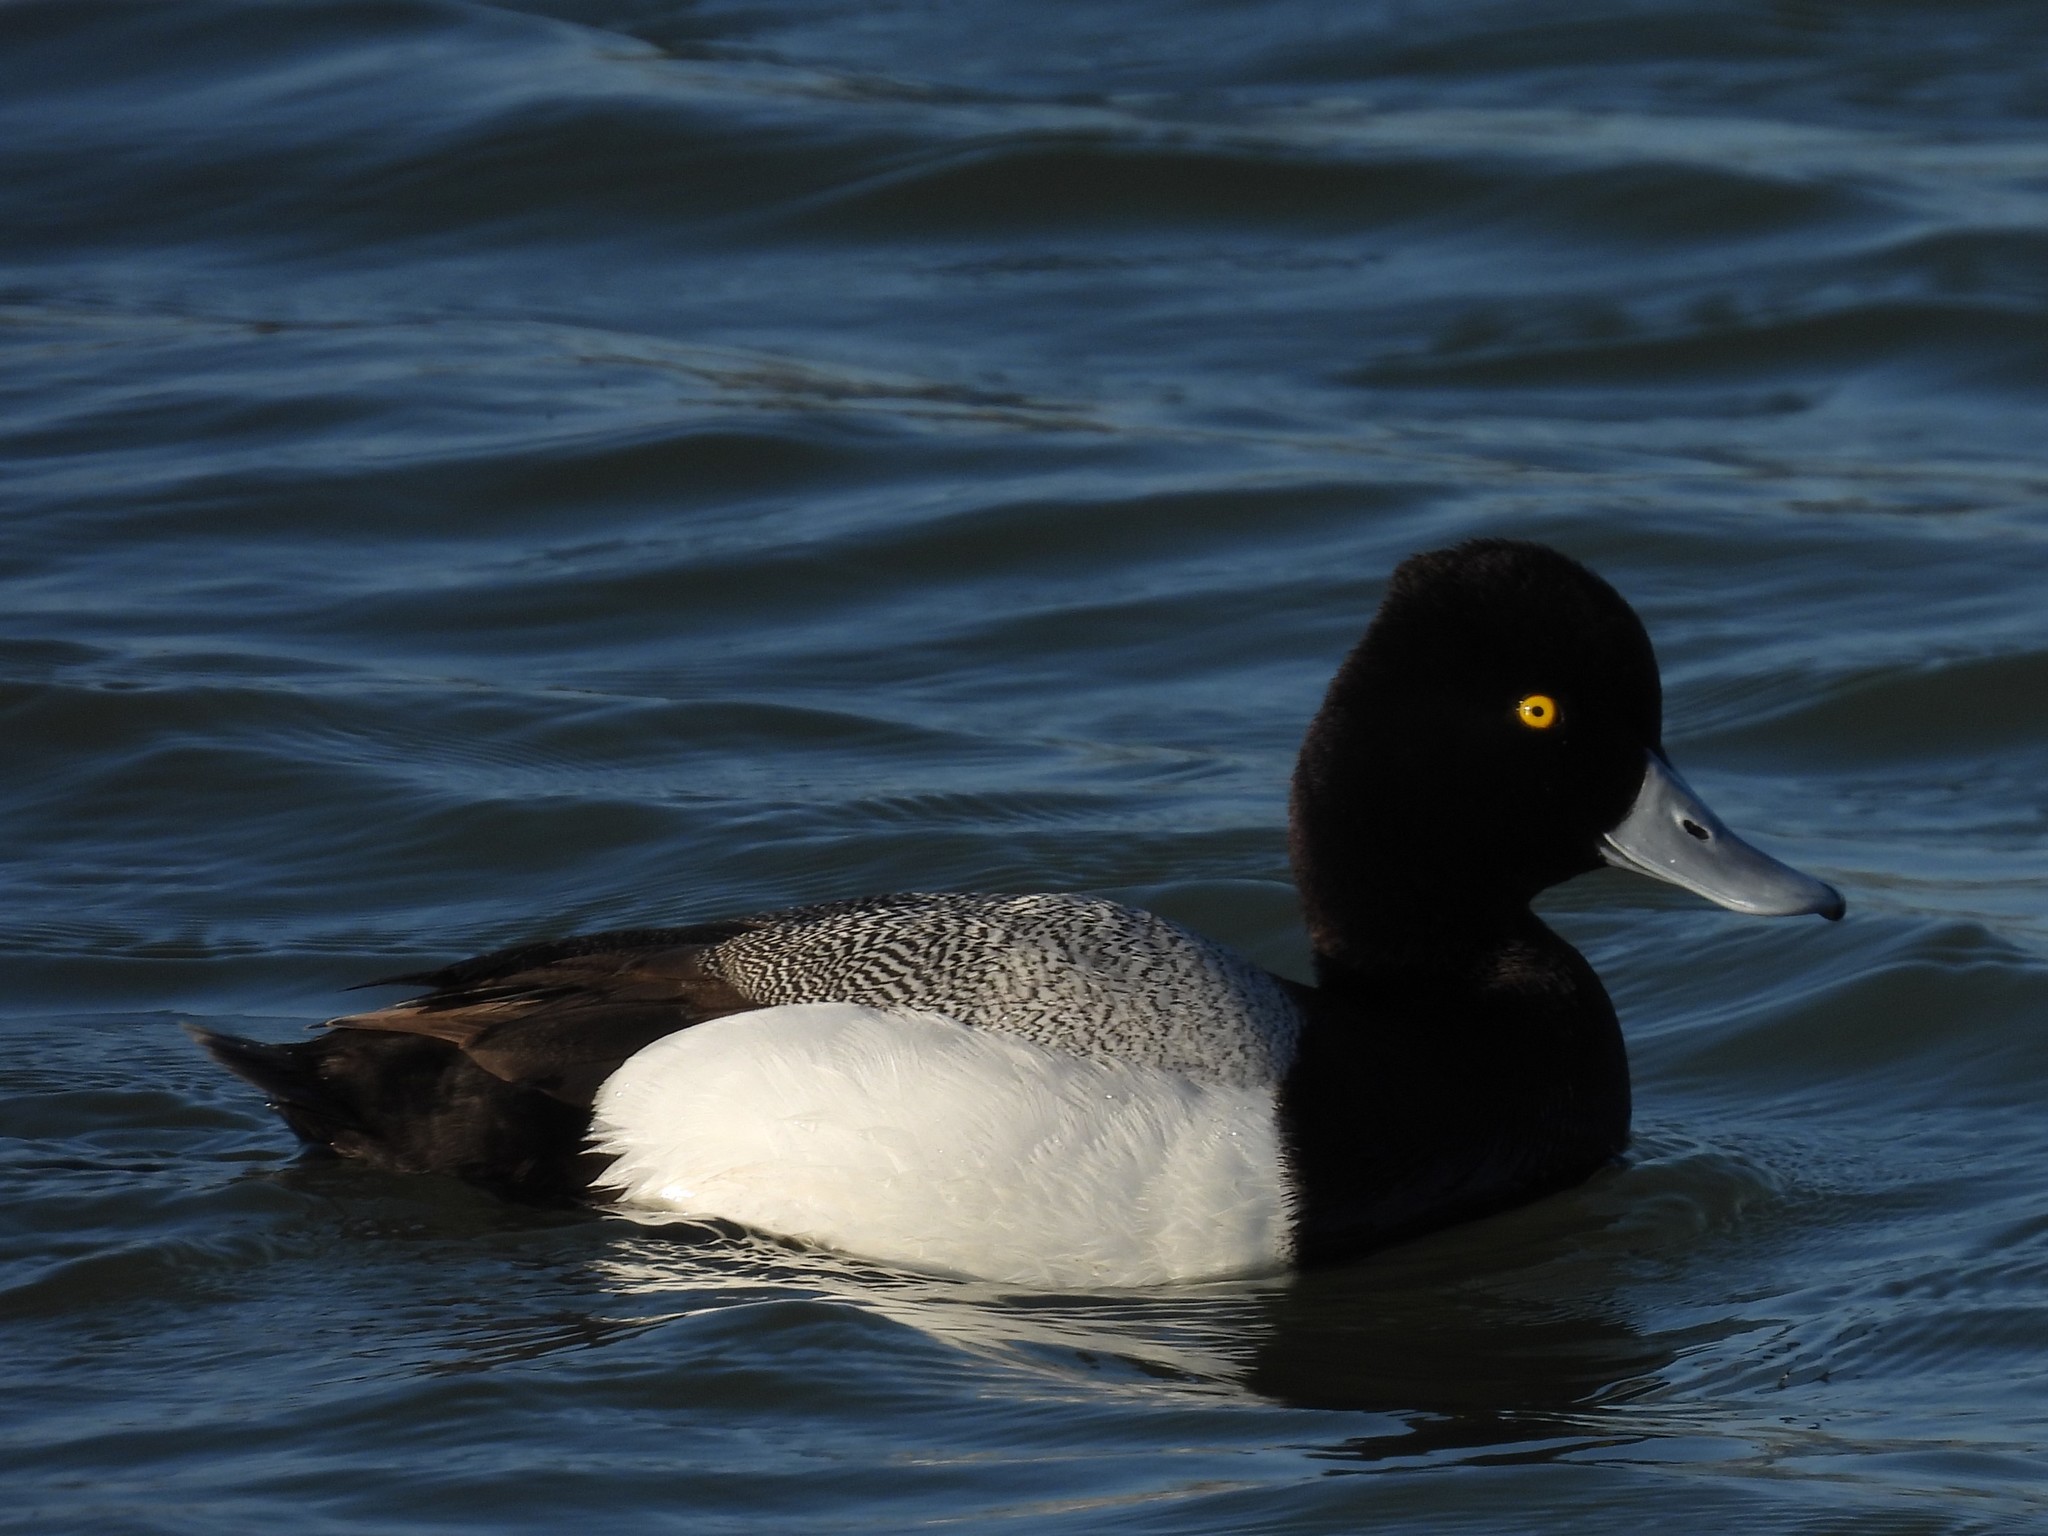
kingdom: Animalia
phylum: Chordata
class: Aves
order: Anseriformes
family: Anatidae
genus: Aythya
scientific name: Aythya affinis
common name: Lesser scaup
